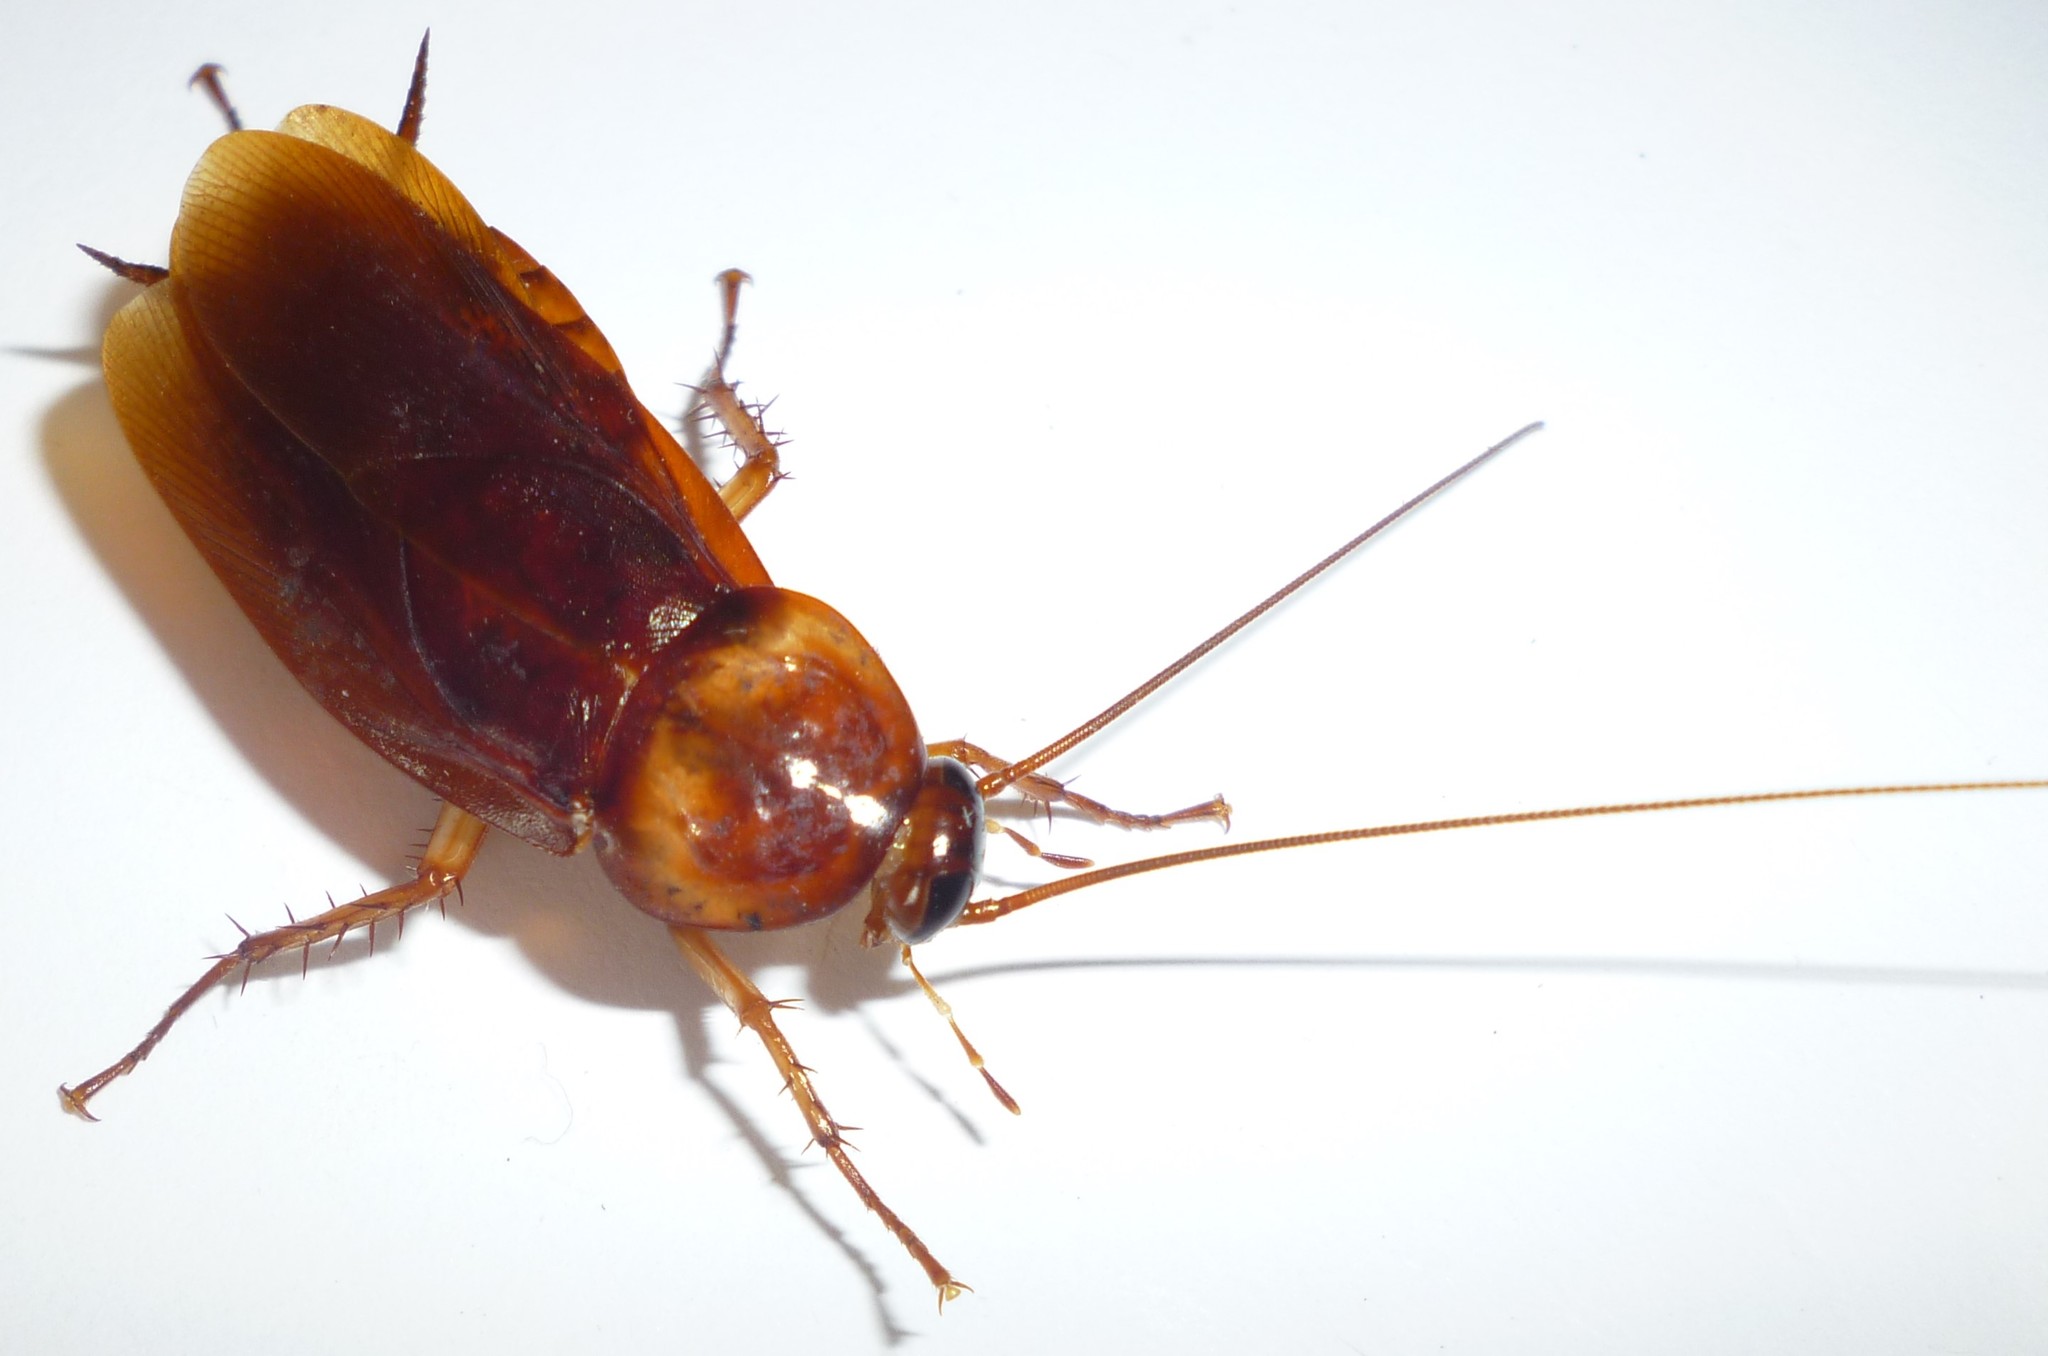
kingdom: Animalia
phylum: Arthropoda
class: Insecta
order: Blattodea
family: Blattidae
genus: Periplaneta
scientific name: Periplaneta americana
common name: American cockroach
